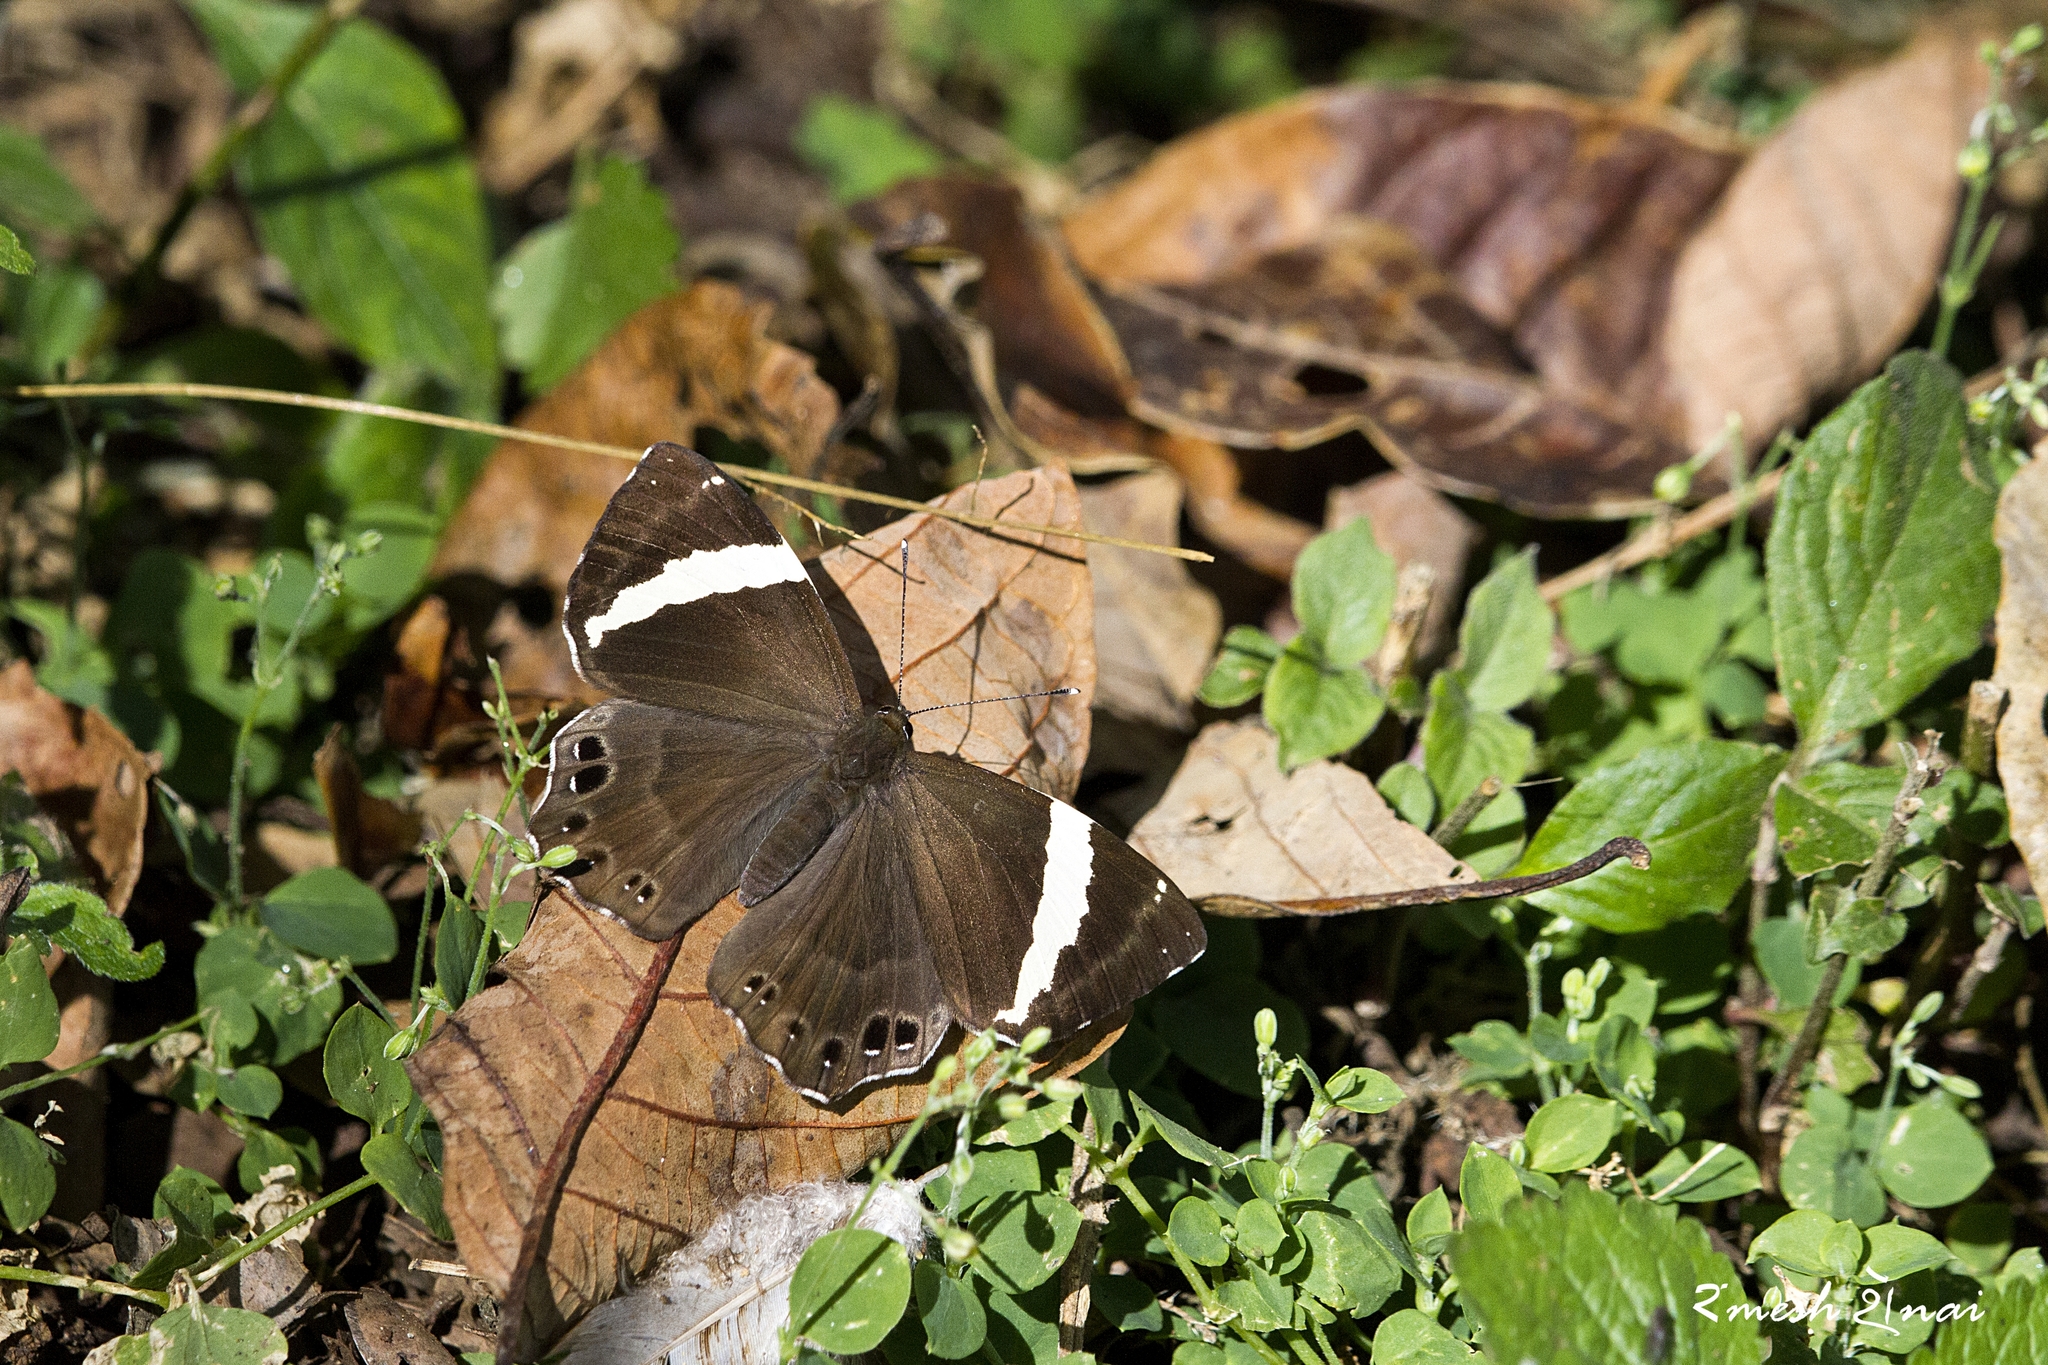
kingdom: Animalia
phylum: Arthropoda
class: Insecta
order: Lepidoptera
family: Lycaenidae
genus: Abisara
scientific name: Abisara fylla
